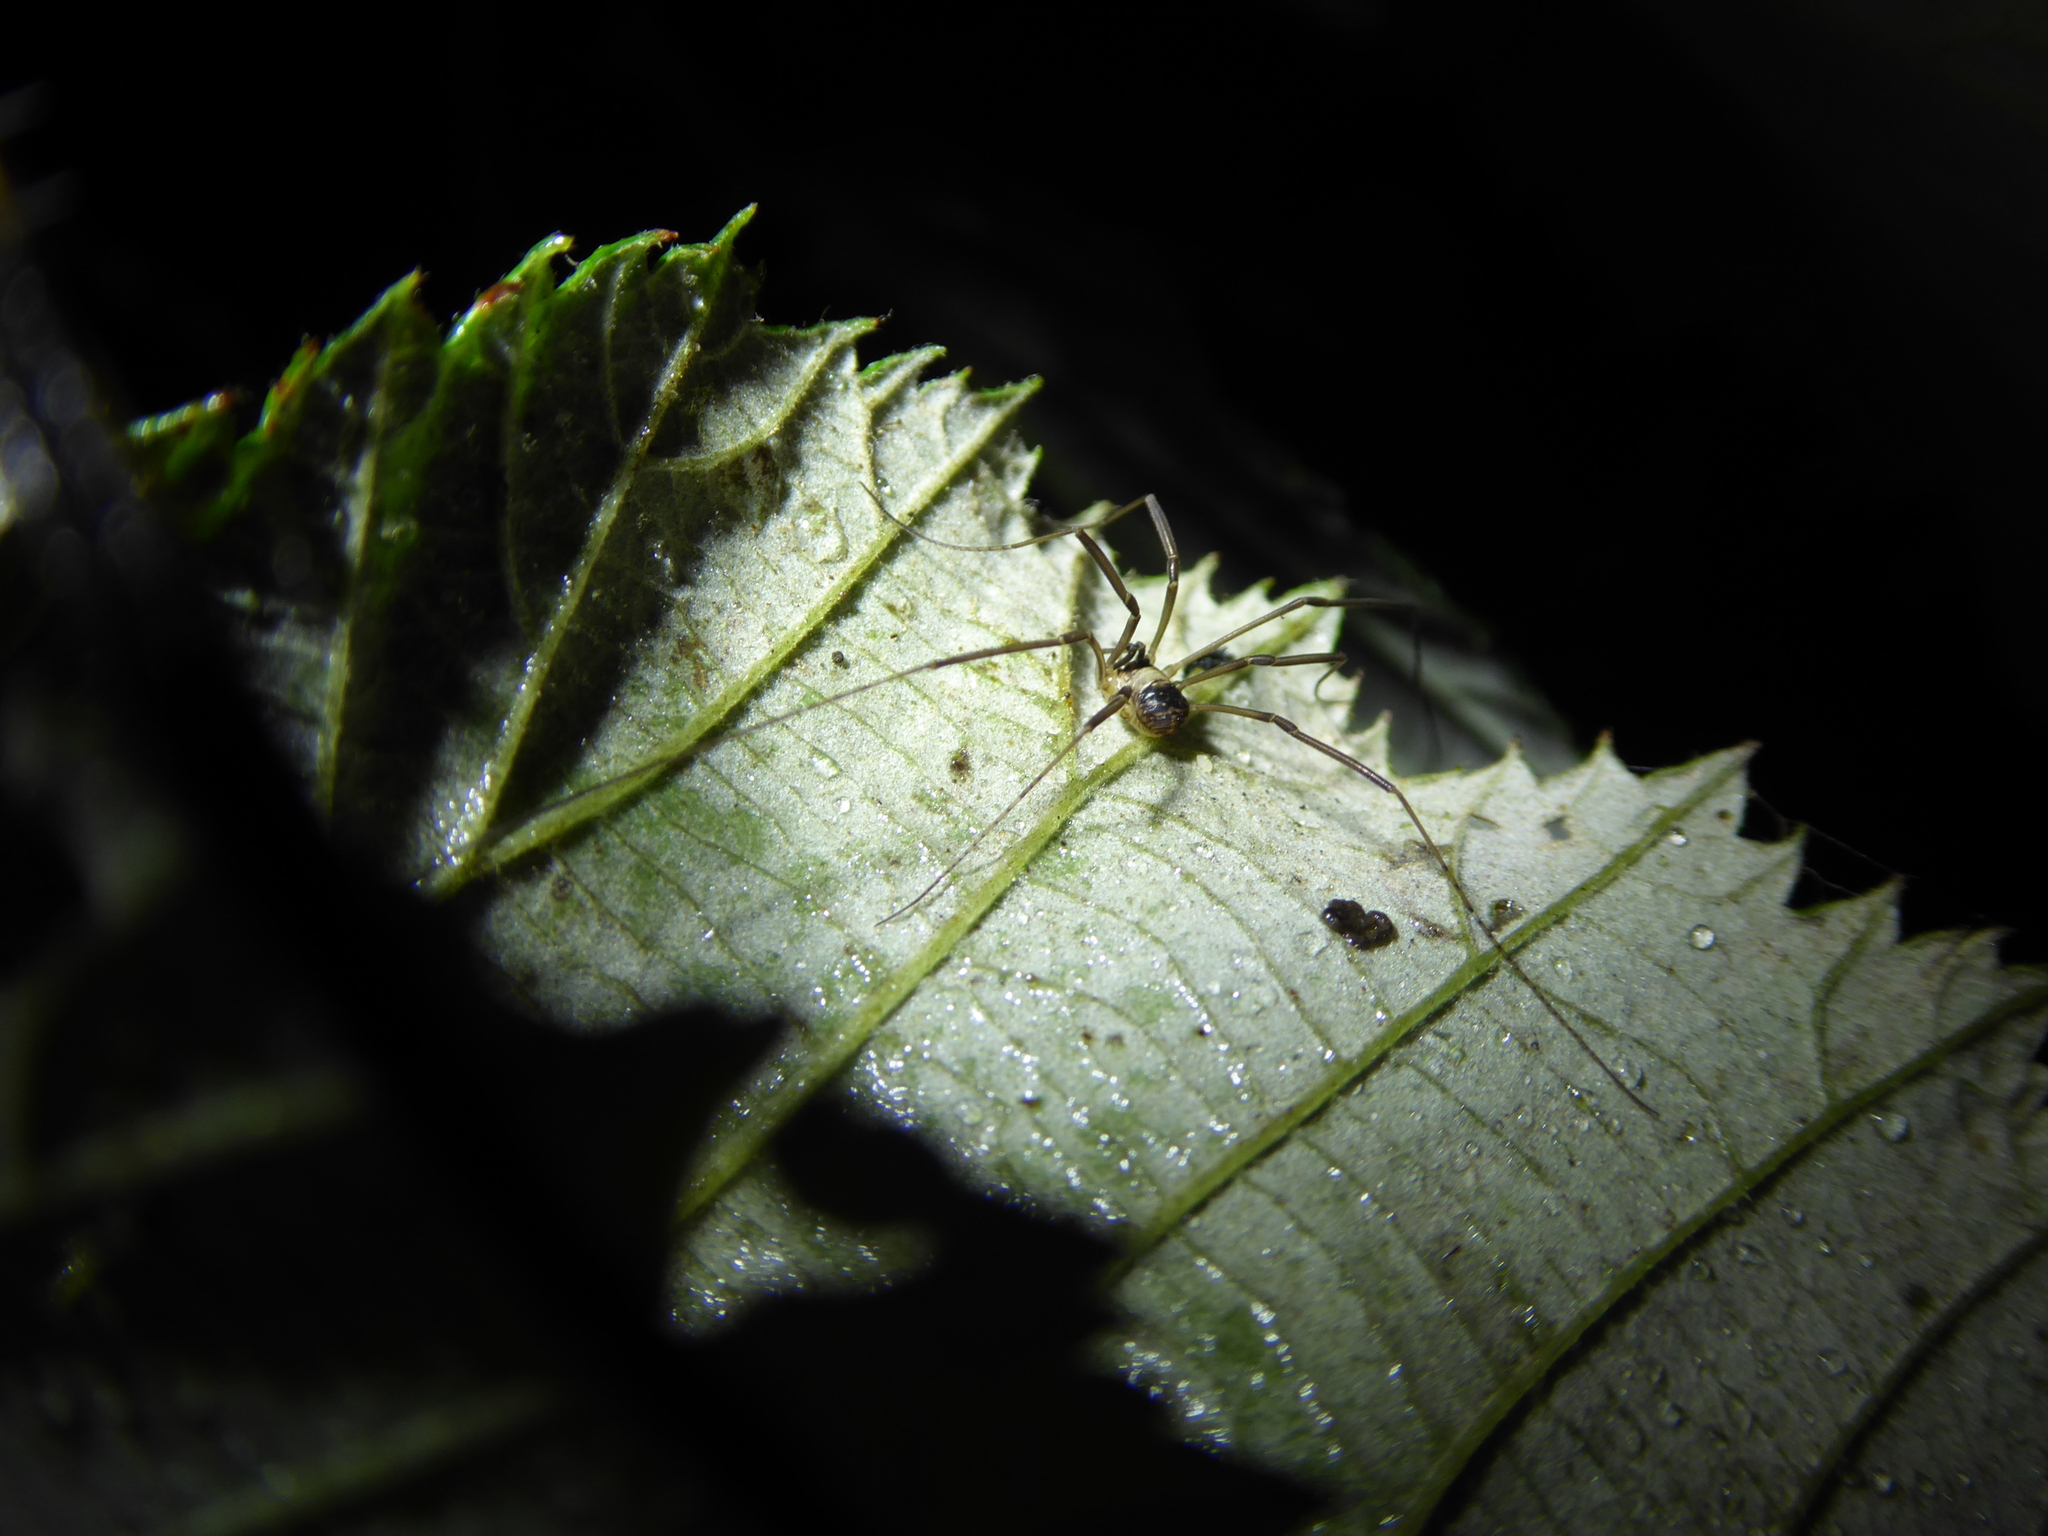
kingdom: Animalia
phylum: Arthropoda
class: Arachnida
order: Opiliones
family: Phalangiidae
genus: Dicranopalpus
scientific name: Dicranopalpus larvatus
